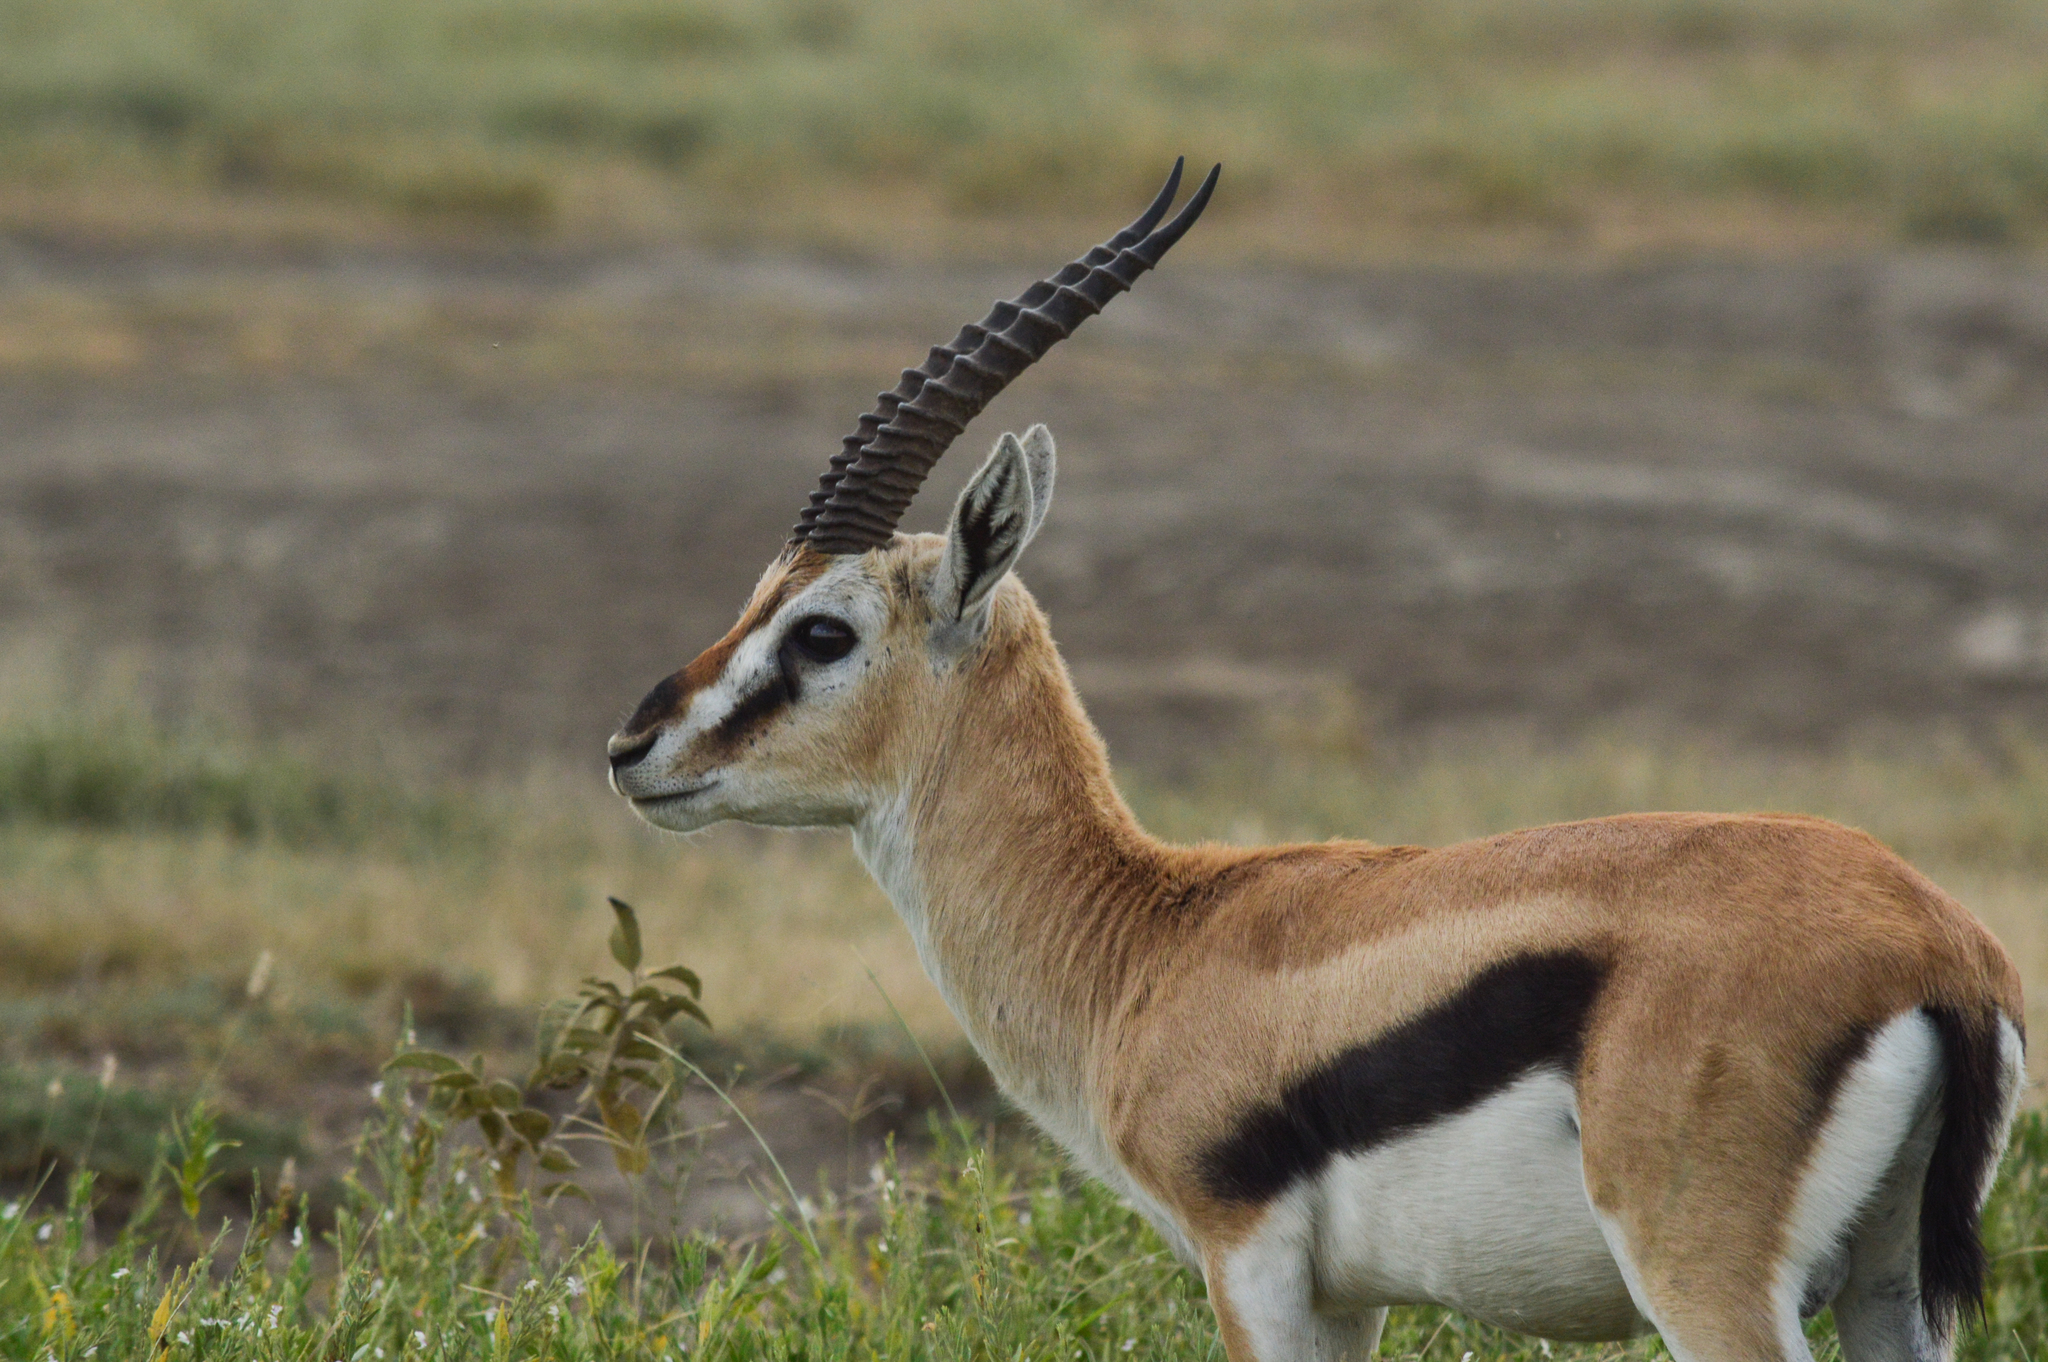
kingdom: Animalia
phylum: Chordata
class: Mammalia
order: Artiodactyla
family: Bovidae
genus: Eudorcas
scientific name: Eudorcas thomsonii
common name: Thomson's gazelle
